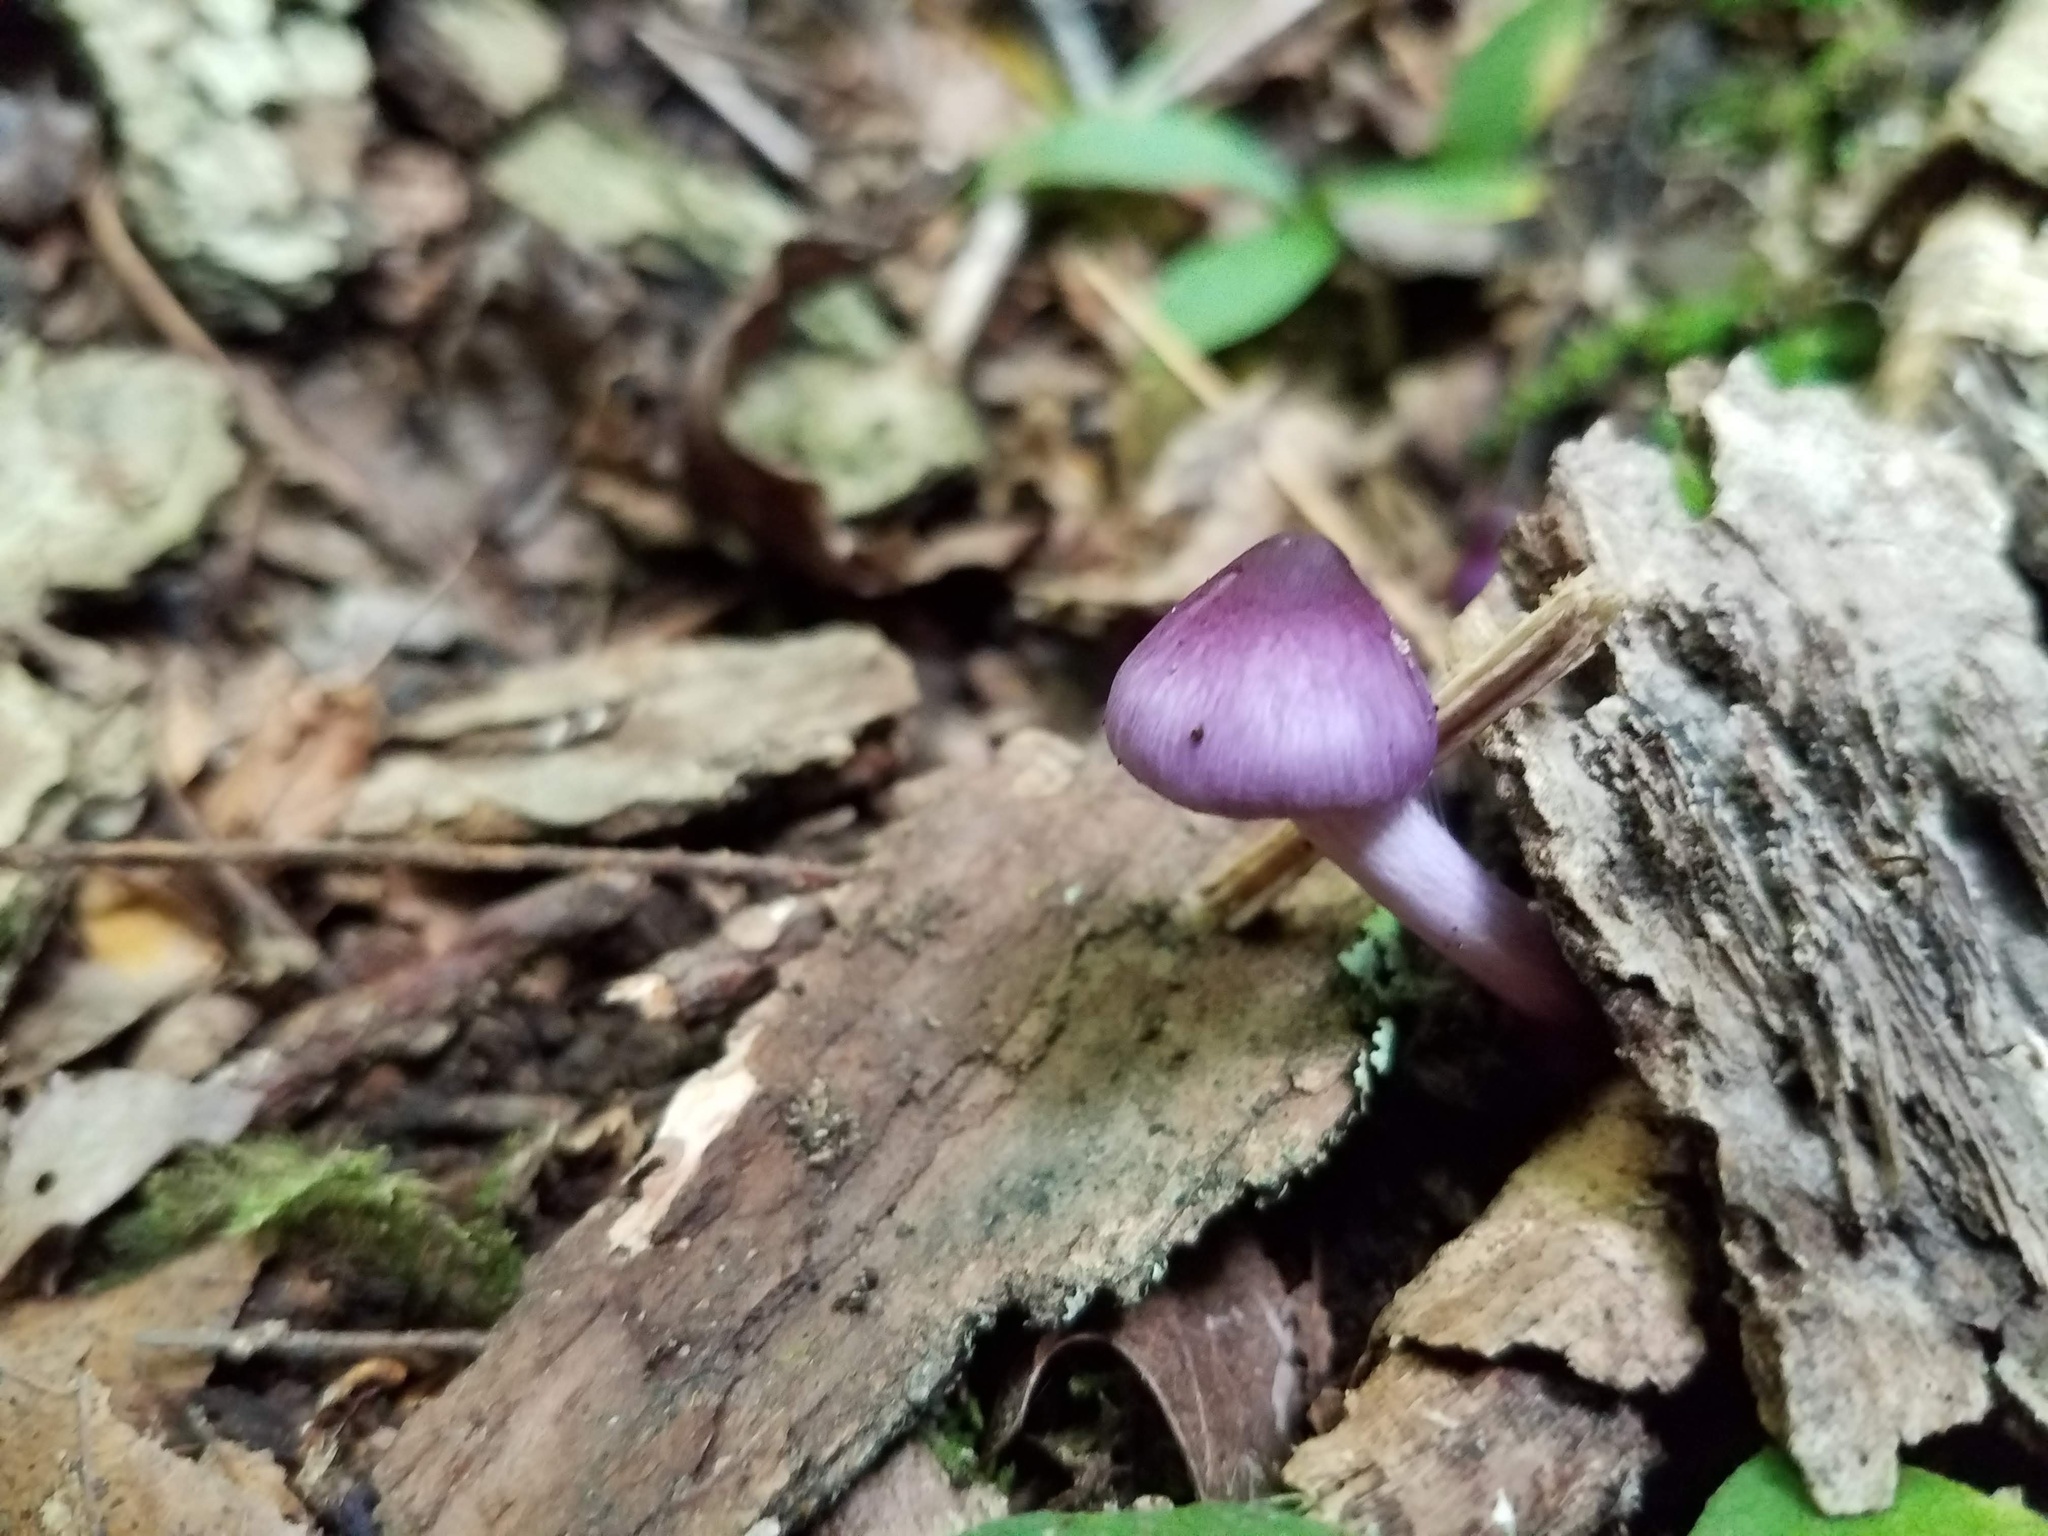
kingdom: Fungi
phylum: Basidiomycota
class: Agaricomycetes
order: Agaricales
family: Inocybaceae
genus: Inocybe
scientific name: Inocybe geophylla
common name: White fibrecap
